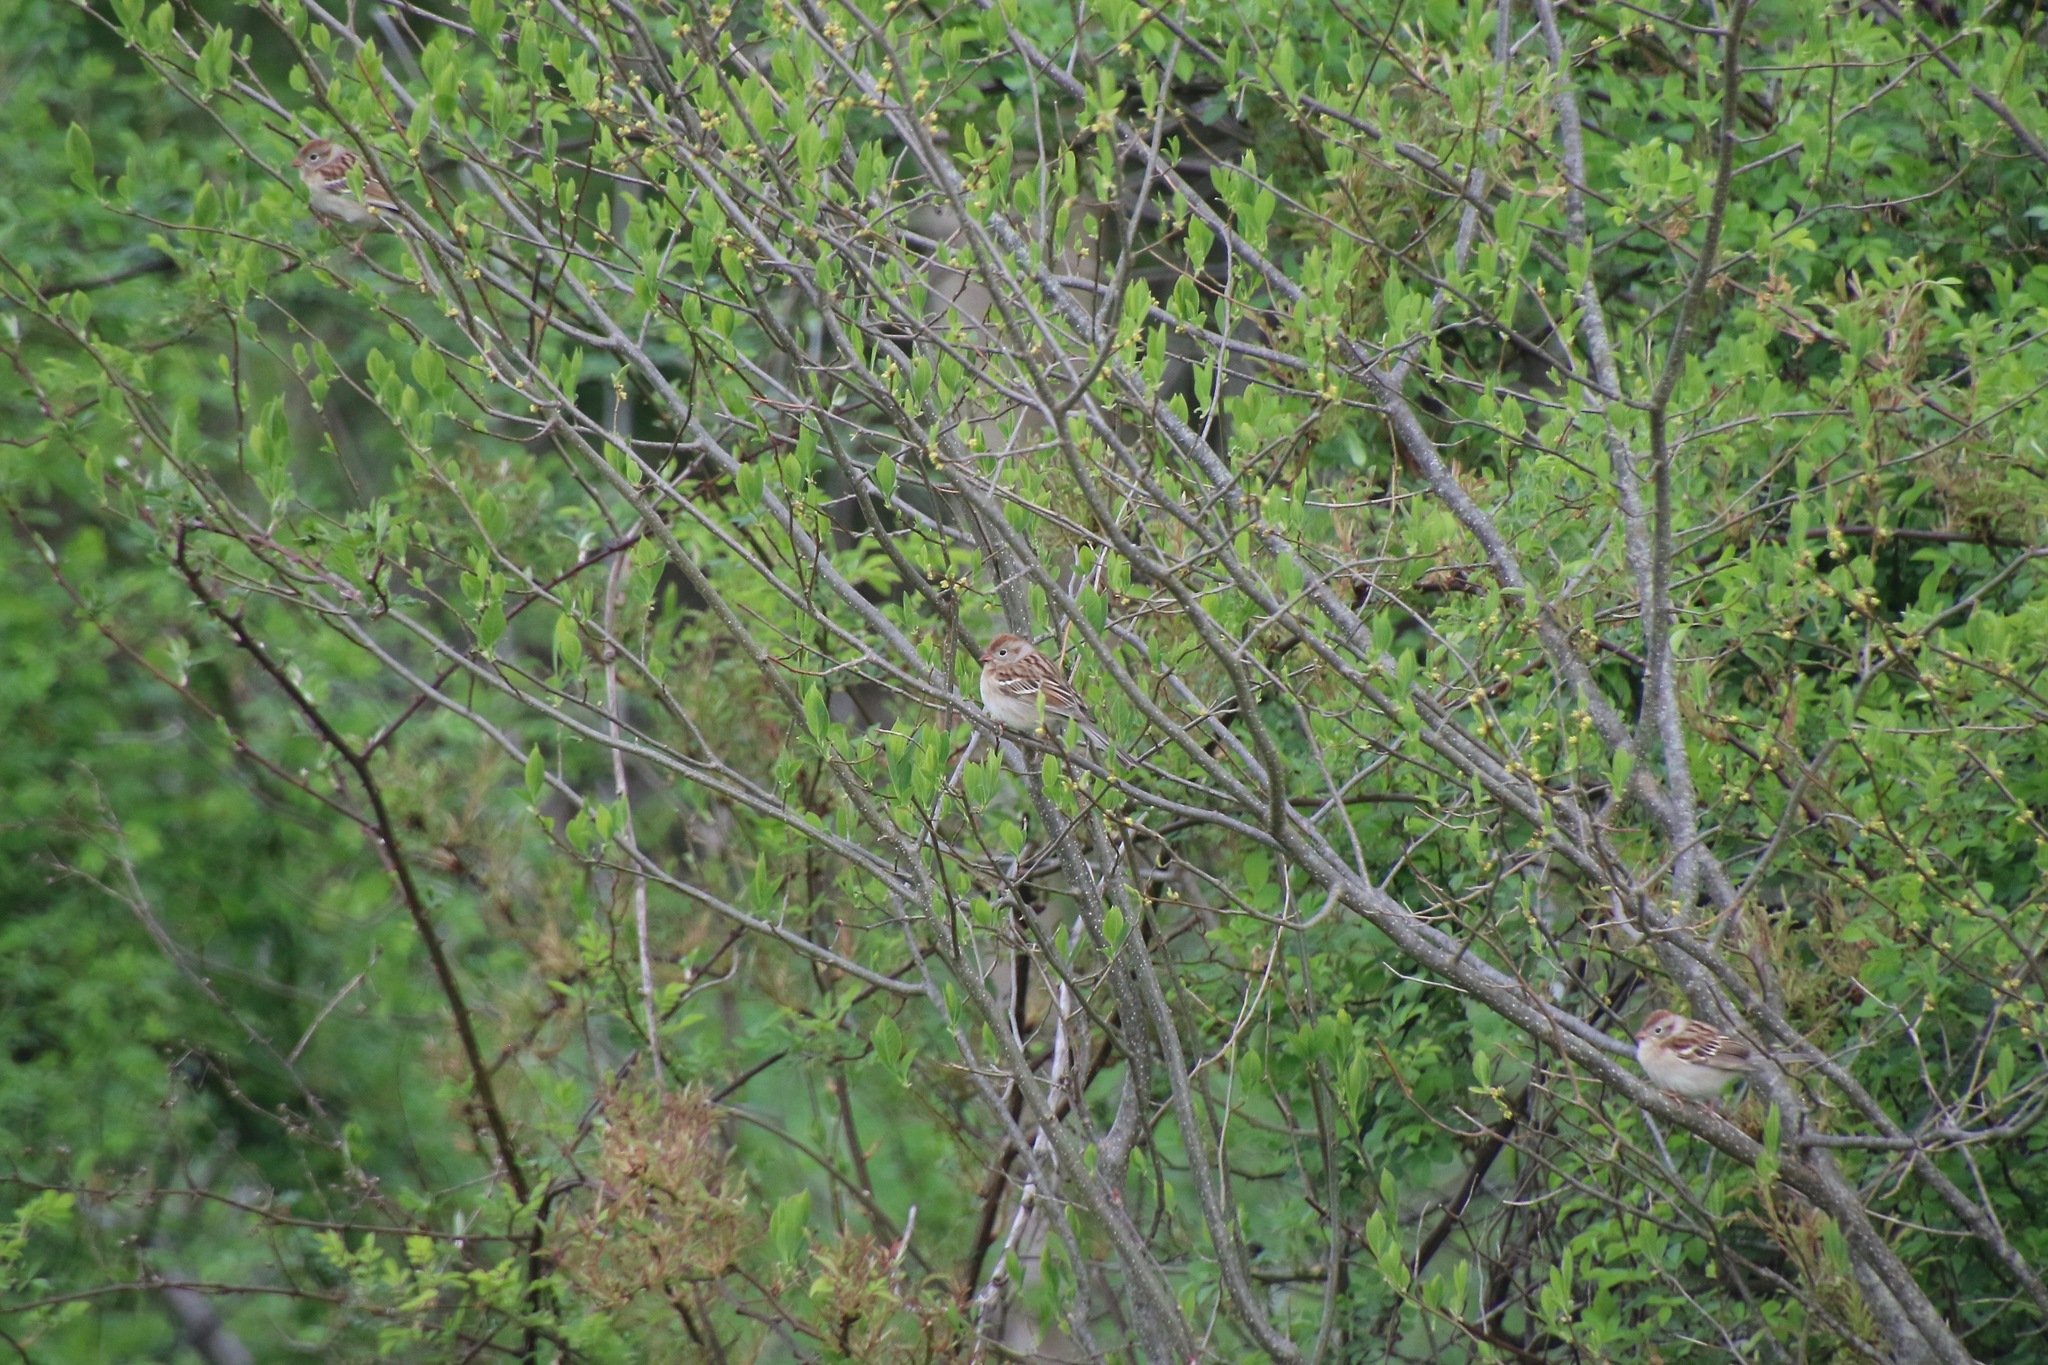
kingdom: Animalia
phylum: Chordata
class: Aves
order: Passeriformes
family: Passerellidae
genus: Spizella
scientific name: Spizella pusilla
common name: Field sparrow
